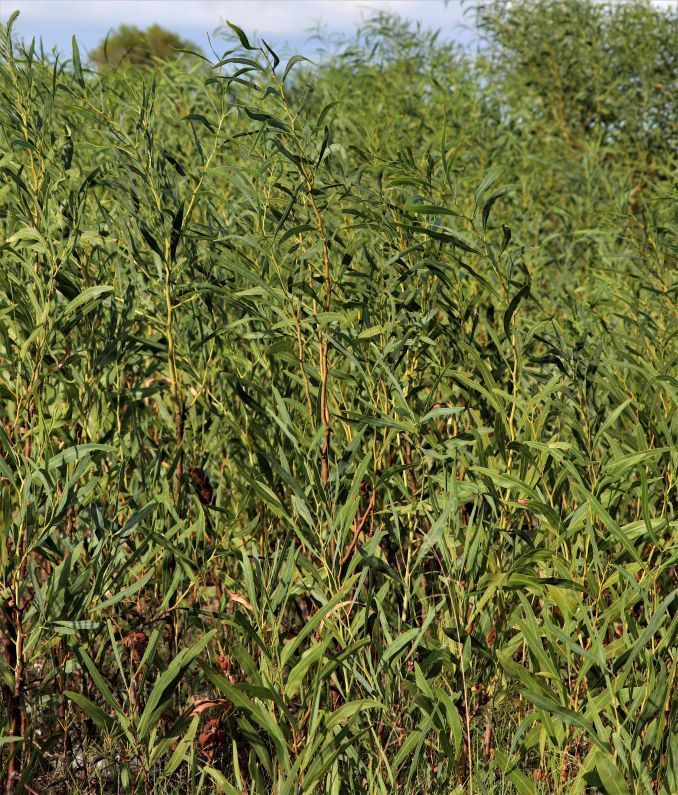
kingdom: Plantae
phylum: Tracheophyta
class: Magnoliopsida
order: Fabales
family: Fabaceae
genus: Acacia
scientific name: Acacia saligna
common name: Orange wattle
